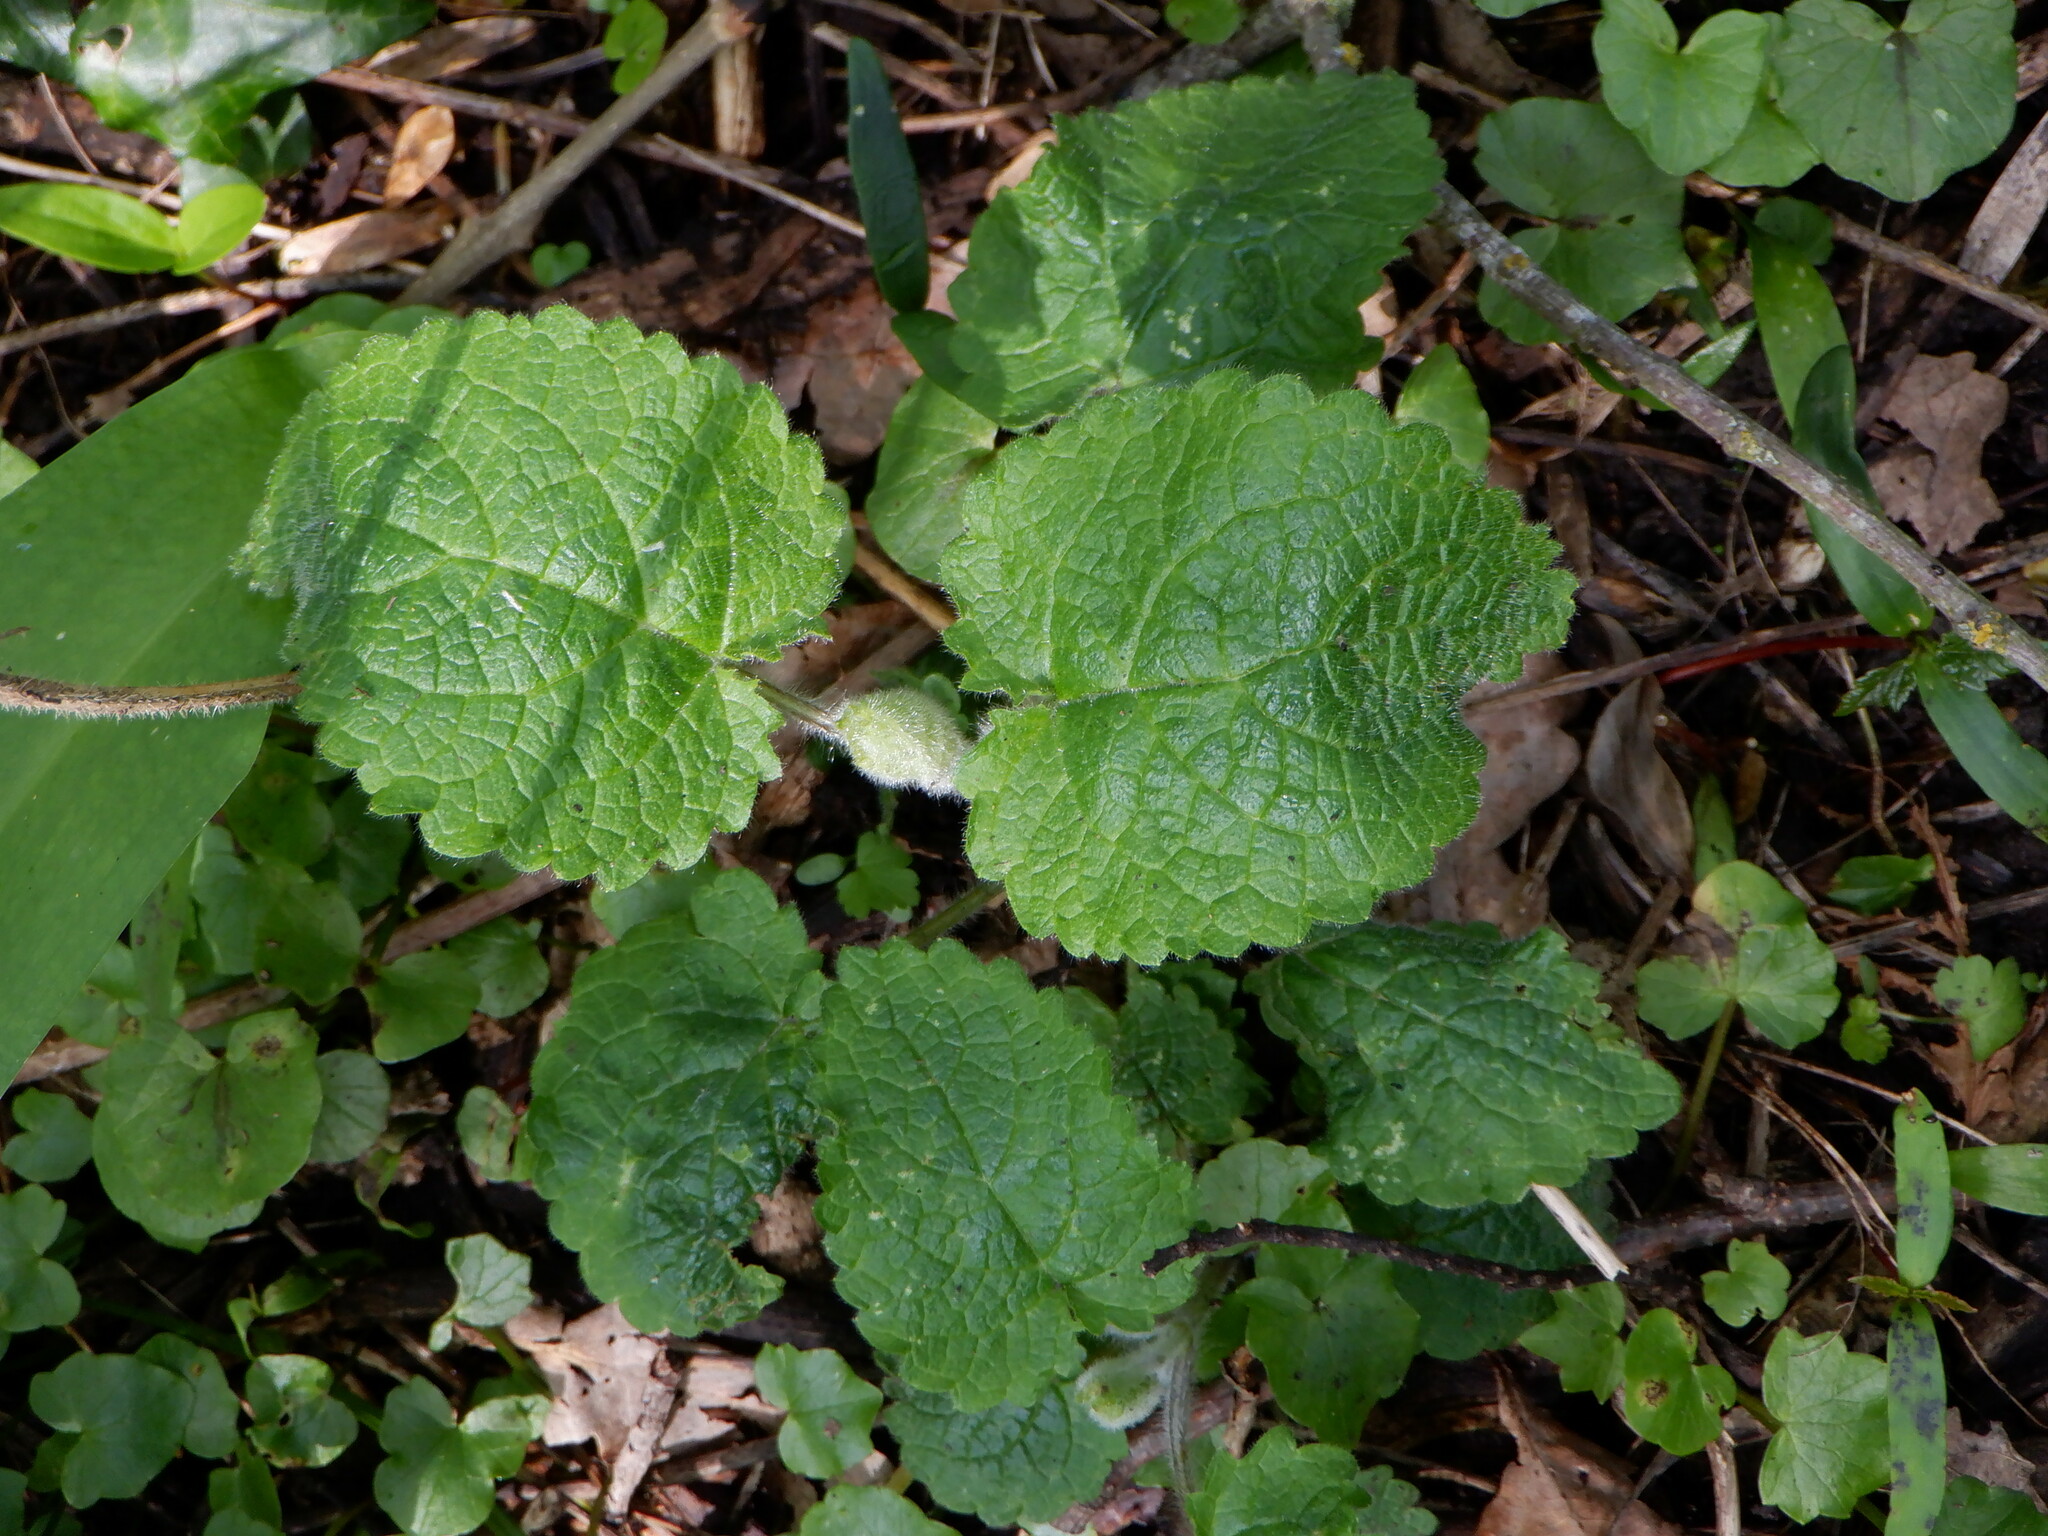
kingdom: Plantae
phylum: Tracheophyta
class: Magnoliopsida
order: Lamiales
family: Lamiaceae
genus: Stachys
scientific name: Stachys sylvatica
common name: Hedge woundwort
